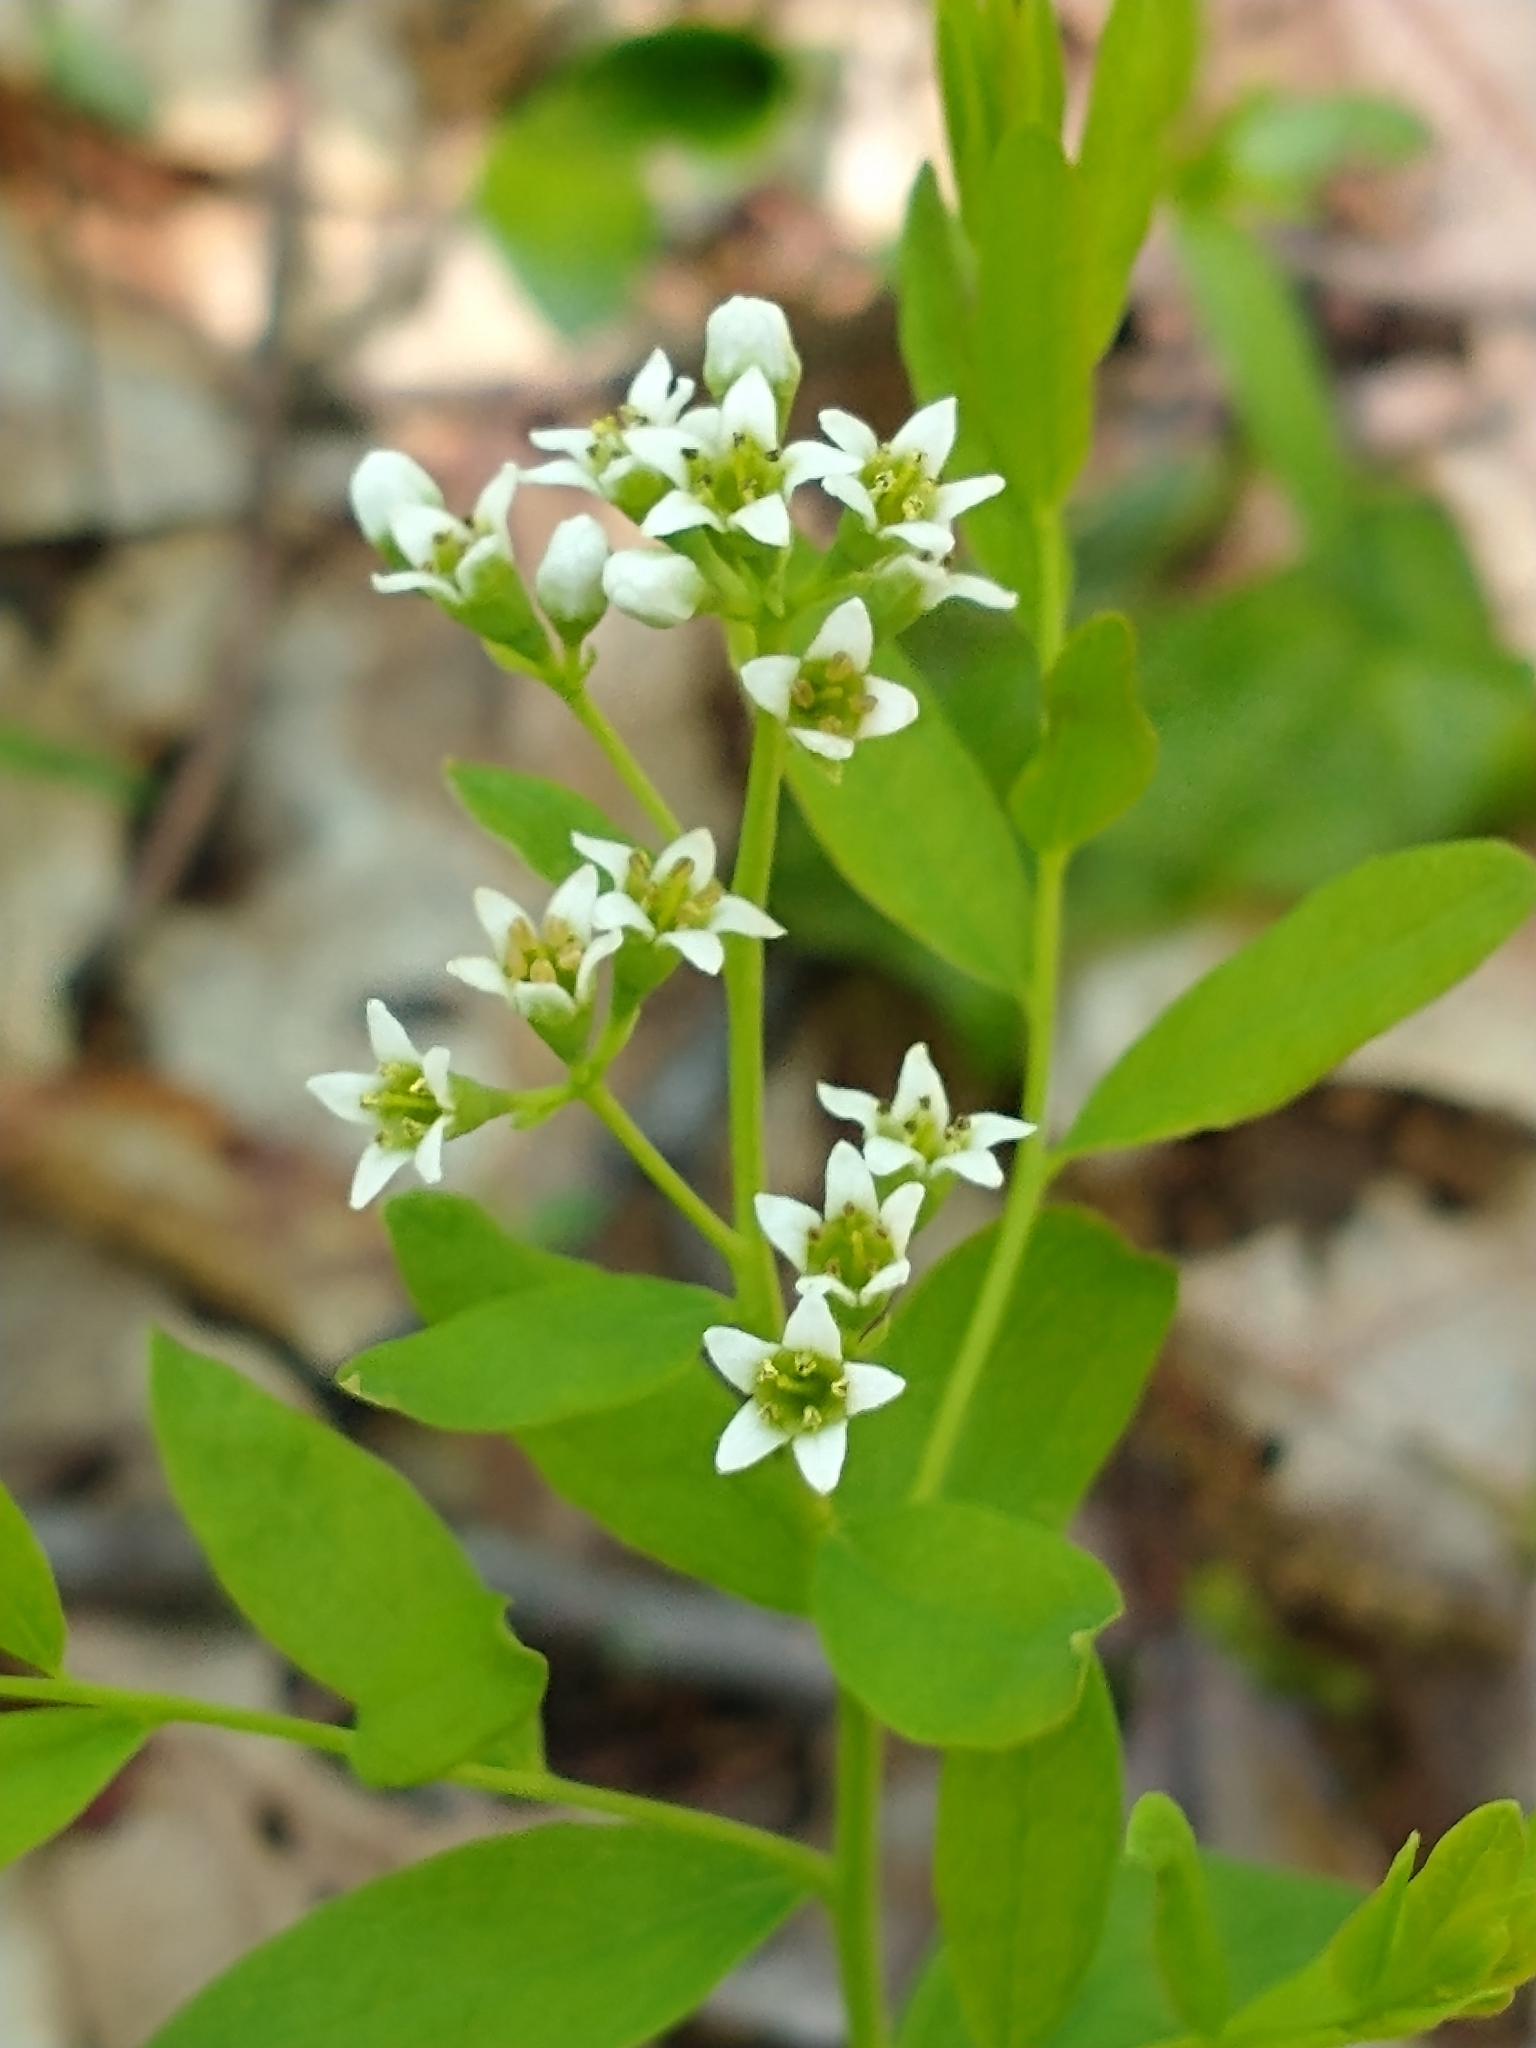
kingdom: Plantae
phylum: Tracheophyta
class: Magnoliopsida
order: Santalales
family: Comandraceae
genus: Comandra
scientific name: Comandra umbellata
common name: Bastard toadflax
